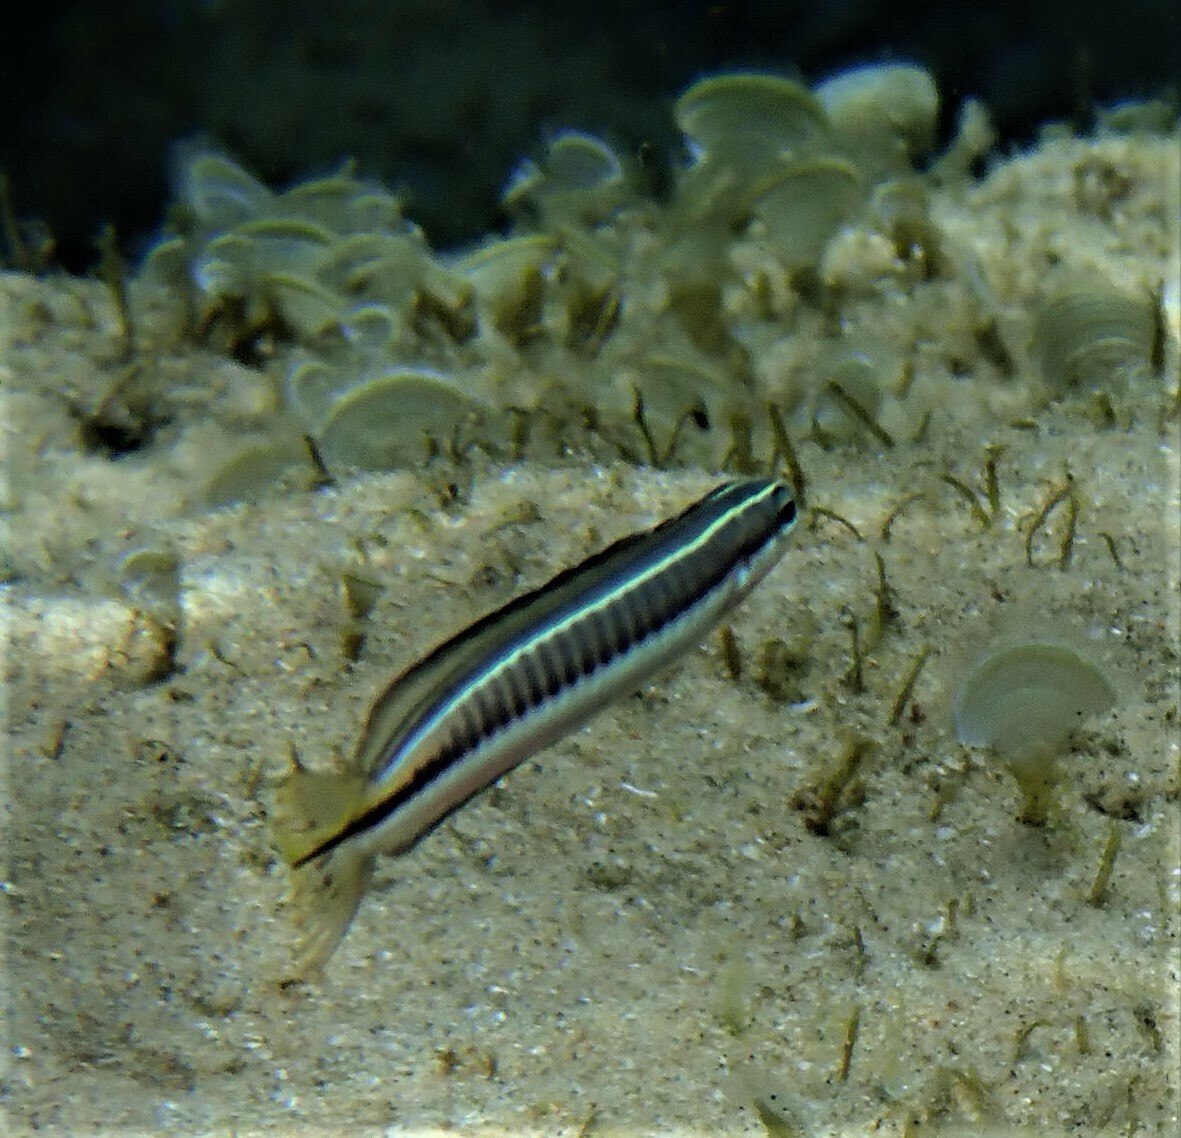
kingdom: Animalia
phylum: Chordata
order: Perciformes
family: Blenniidae
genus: Plagiotremus
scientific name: Plagiotremus tapeinosoma
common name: Hit and run blenny
